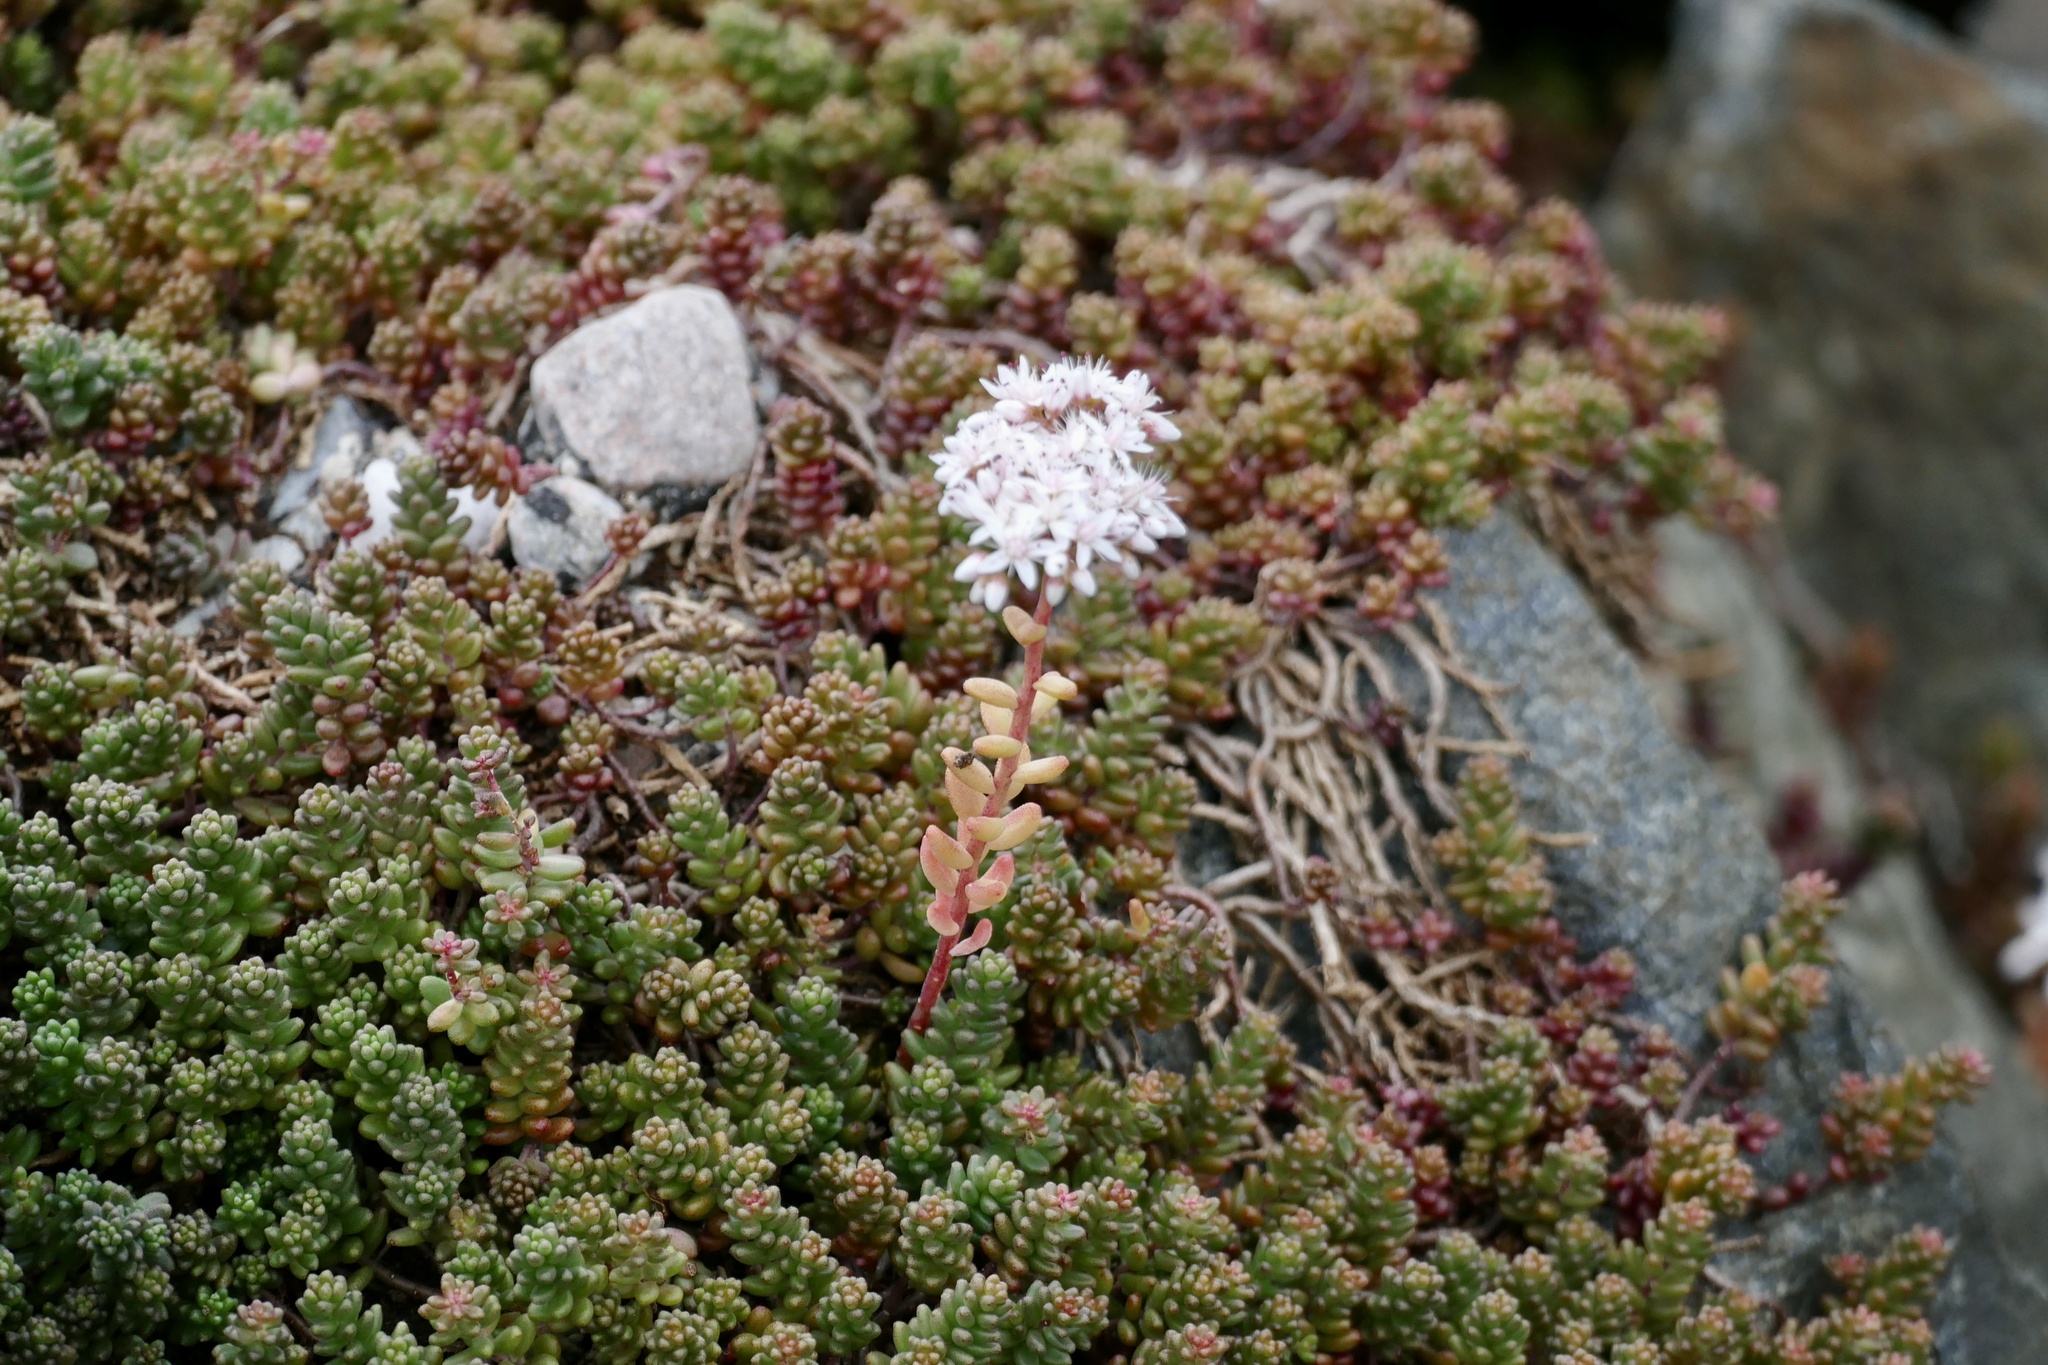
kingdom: Plantae
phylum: Tracheophyta
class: Magnoliopsida
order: Saxifragales
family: Crassulaceae
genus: Sedum
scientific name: Sedum album
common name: White stonecrop
